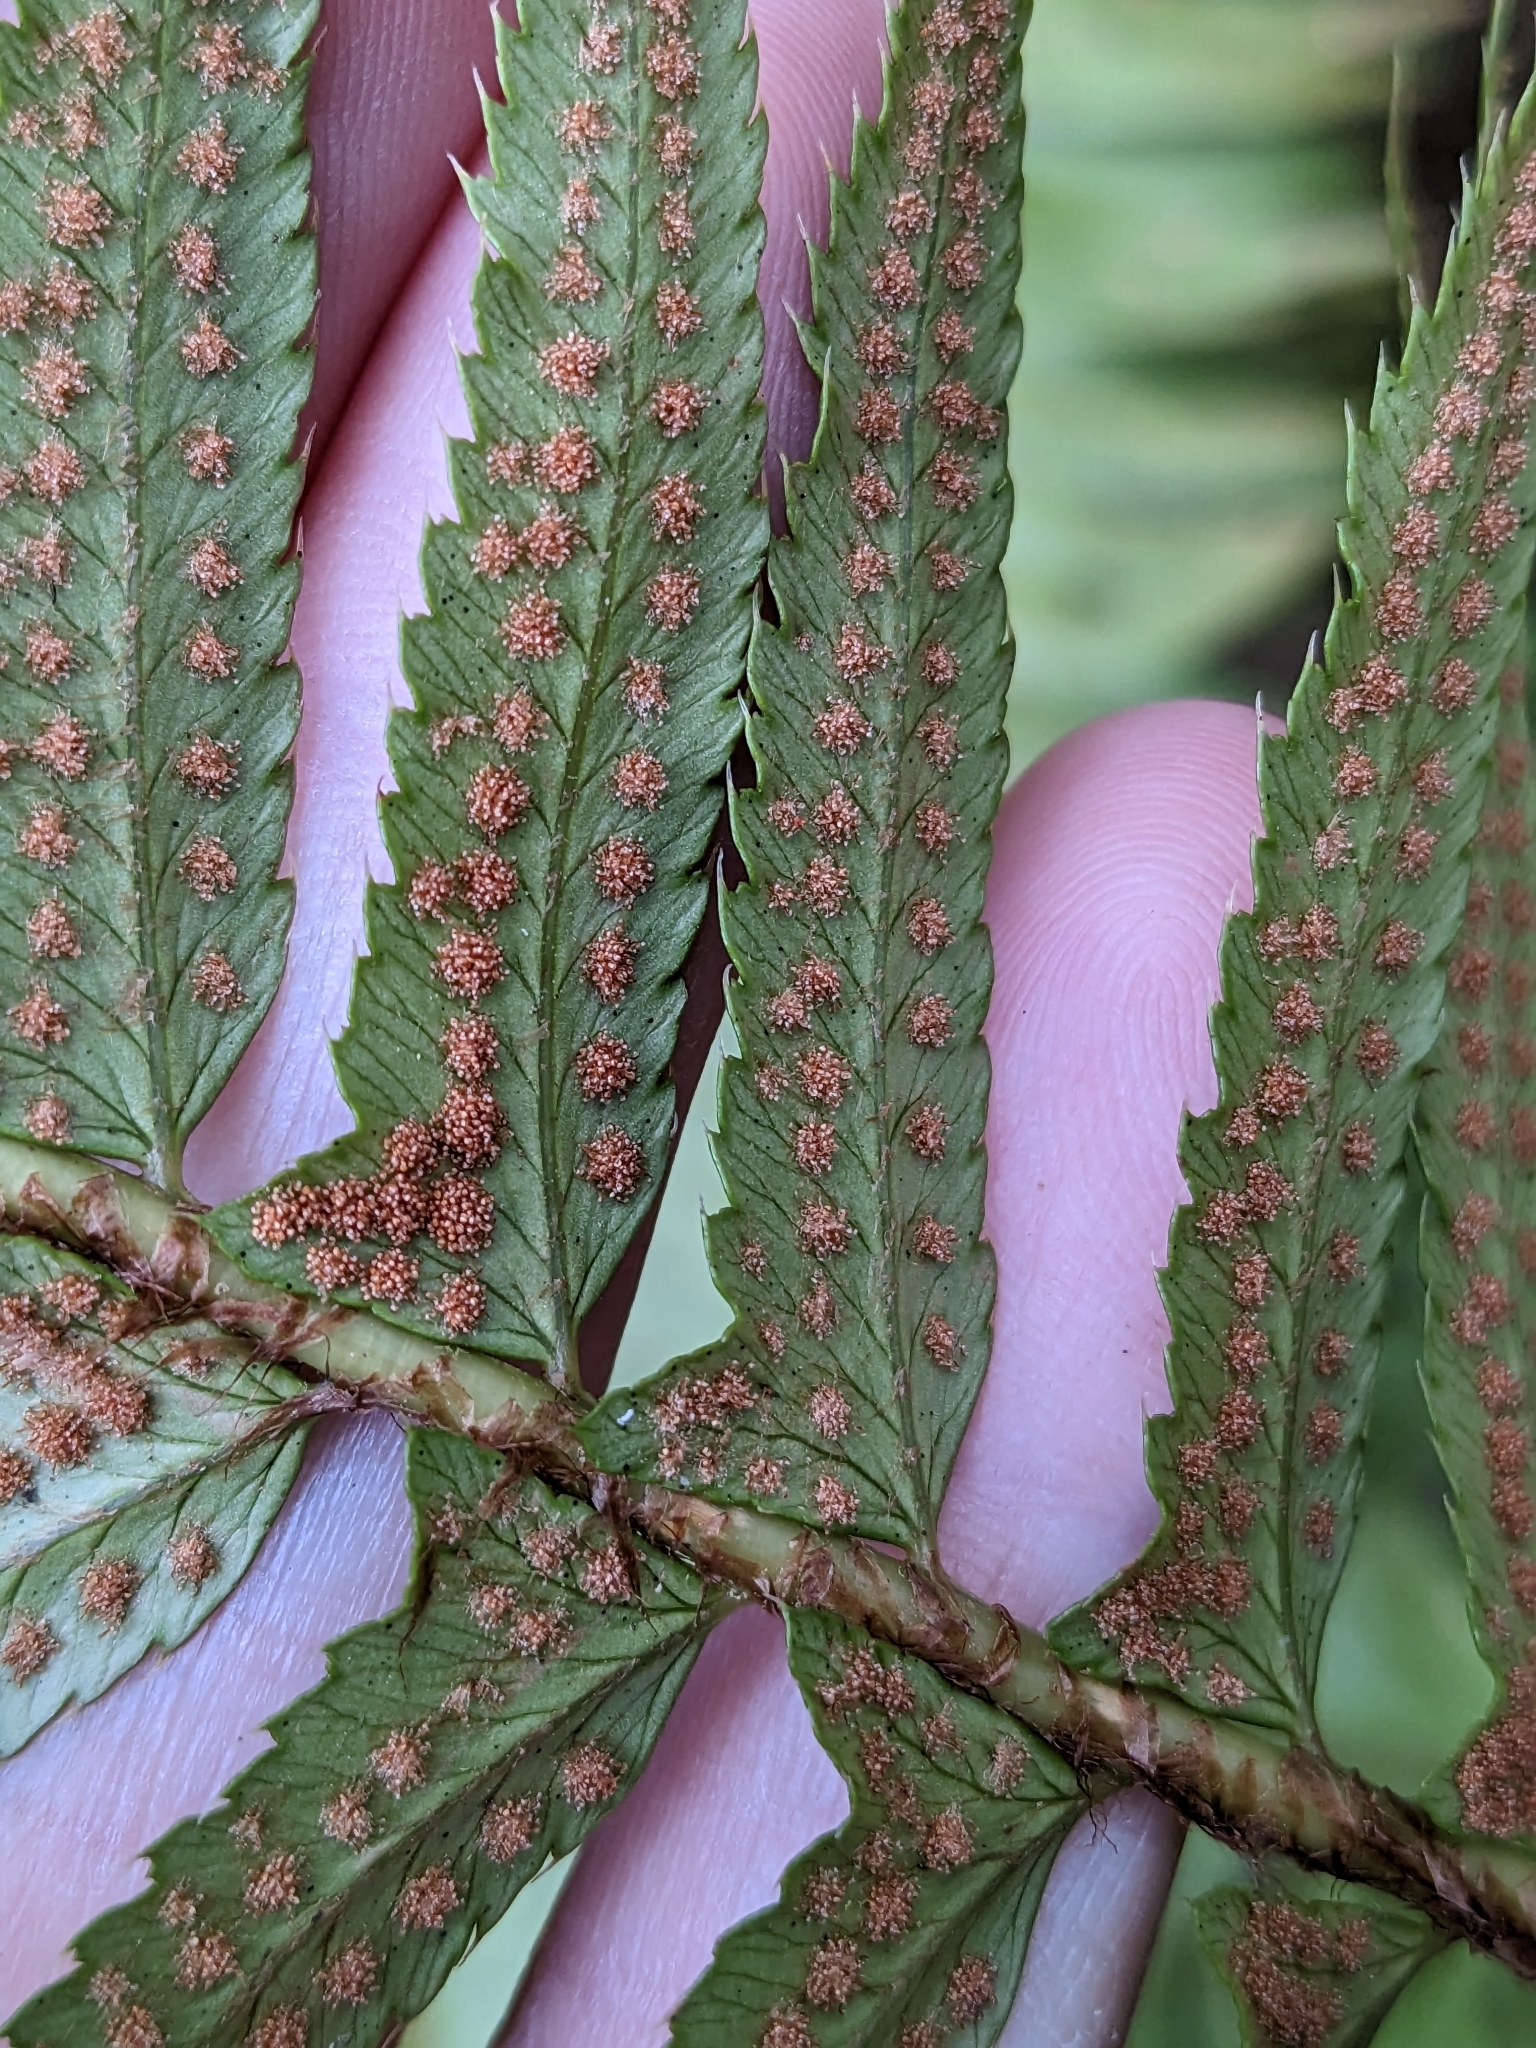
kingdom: Plantae
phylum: Tracheophyta
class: Polypodiopsida
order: Polypodiales
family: Dryopteridaceae
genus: Polystichum
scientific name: Polystichum munitum
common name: Western sword-fern
